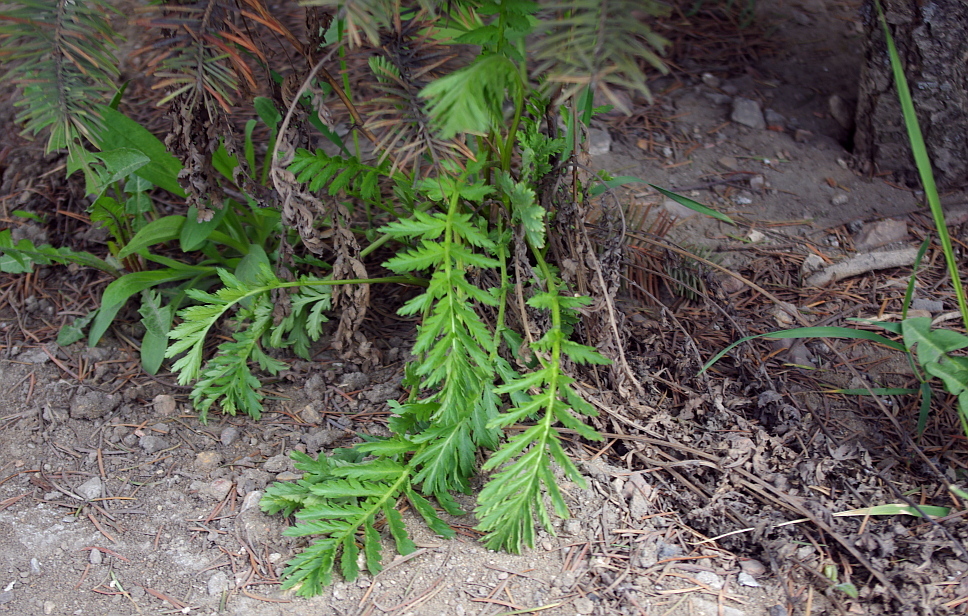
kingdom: Plantae
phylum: Tracheophyta
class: Magnoliopsida
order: Asterales
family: Asteraceae
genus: Tanacetum
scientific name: Tanacetum vulgare
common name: Common tansy
